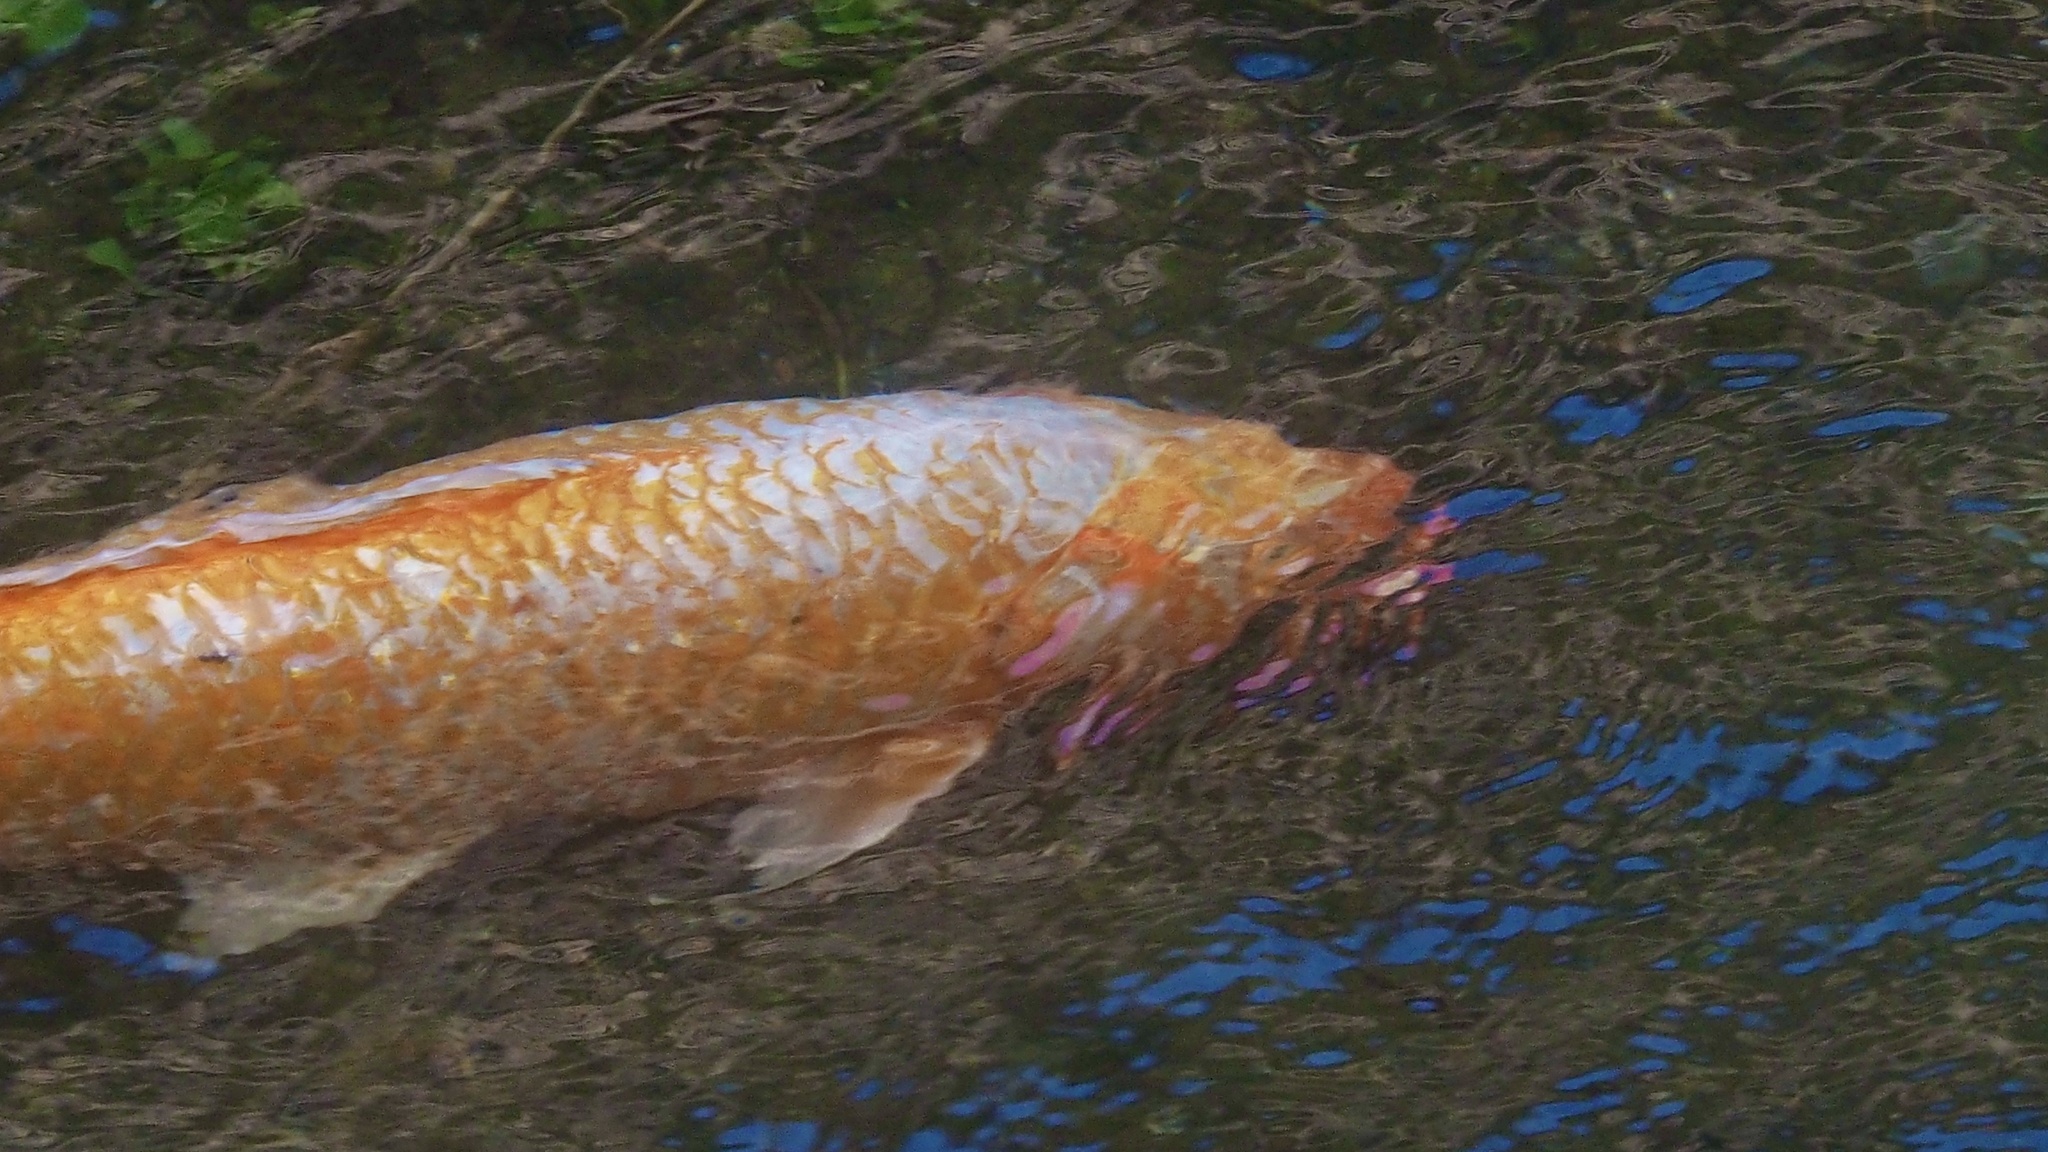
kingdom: Animalia
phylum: Chordata
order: Cypriniformes
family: Cyprinidae
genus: Cyprinus
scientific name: Cyprinus rubrofuscus
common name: Koi
